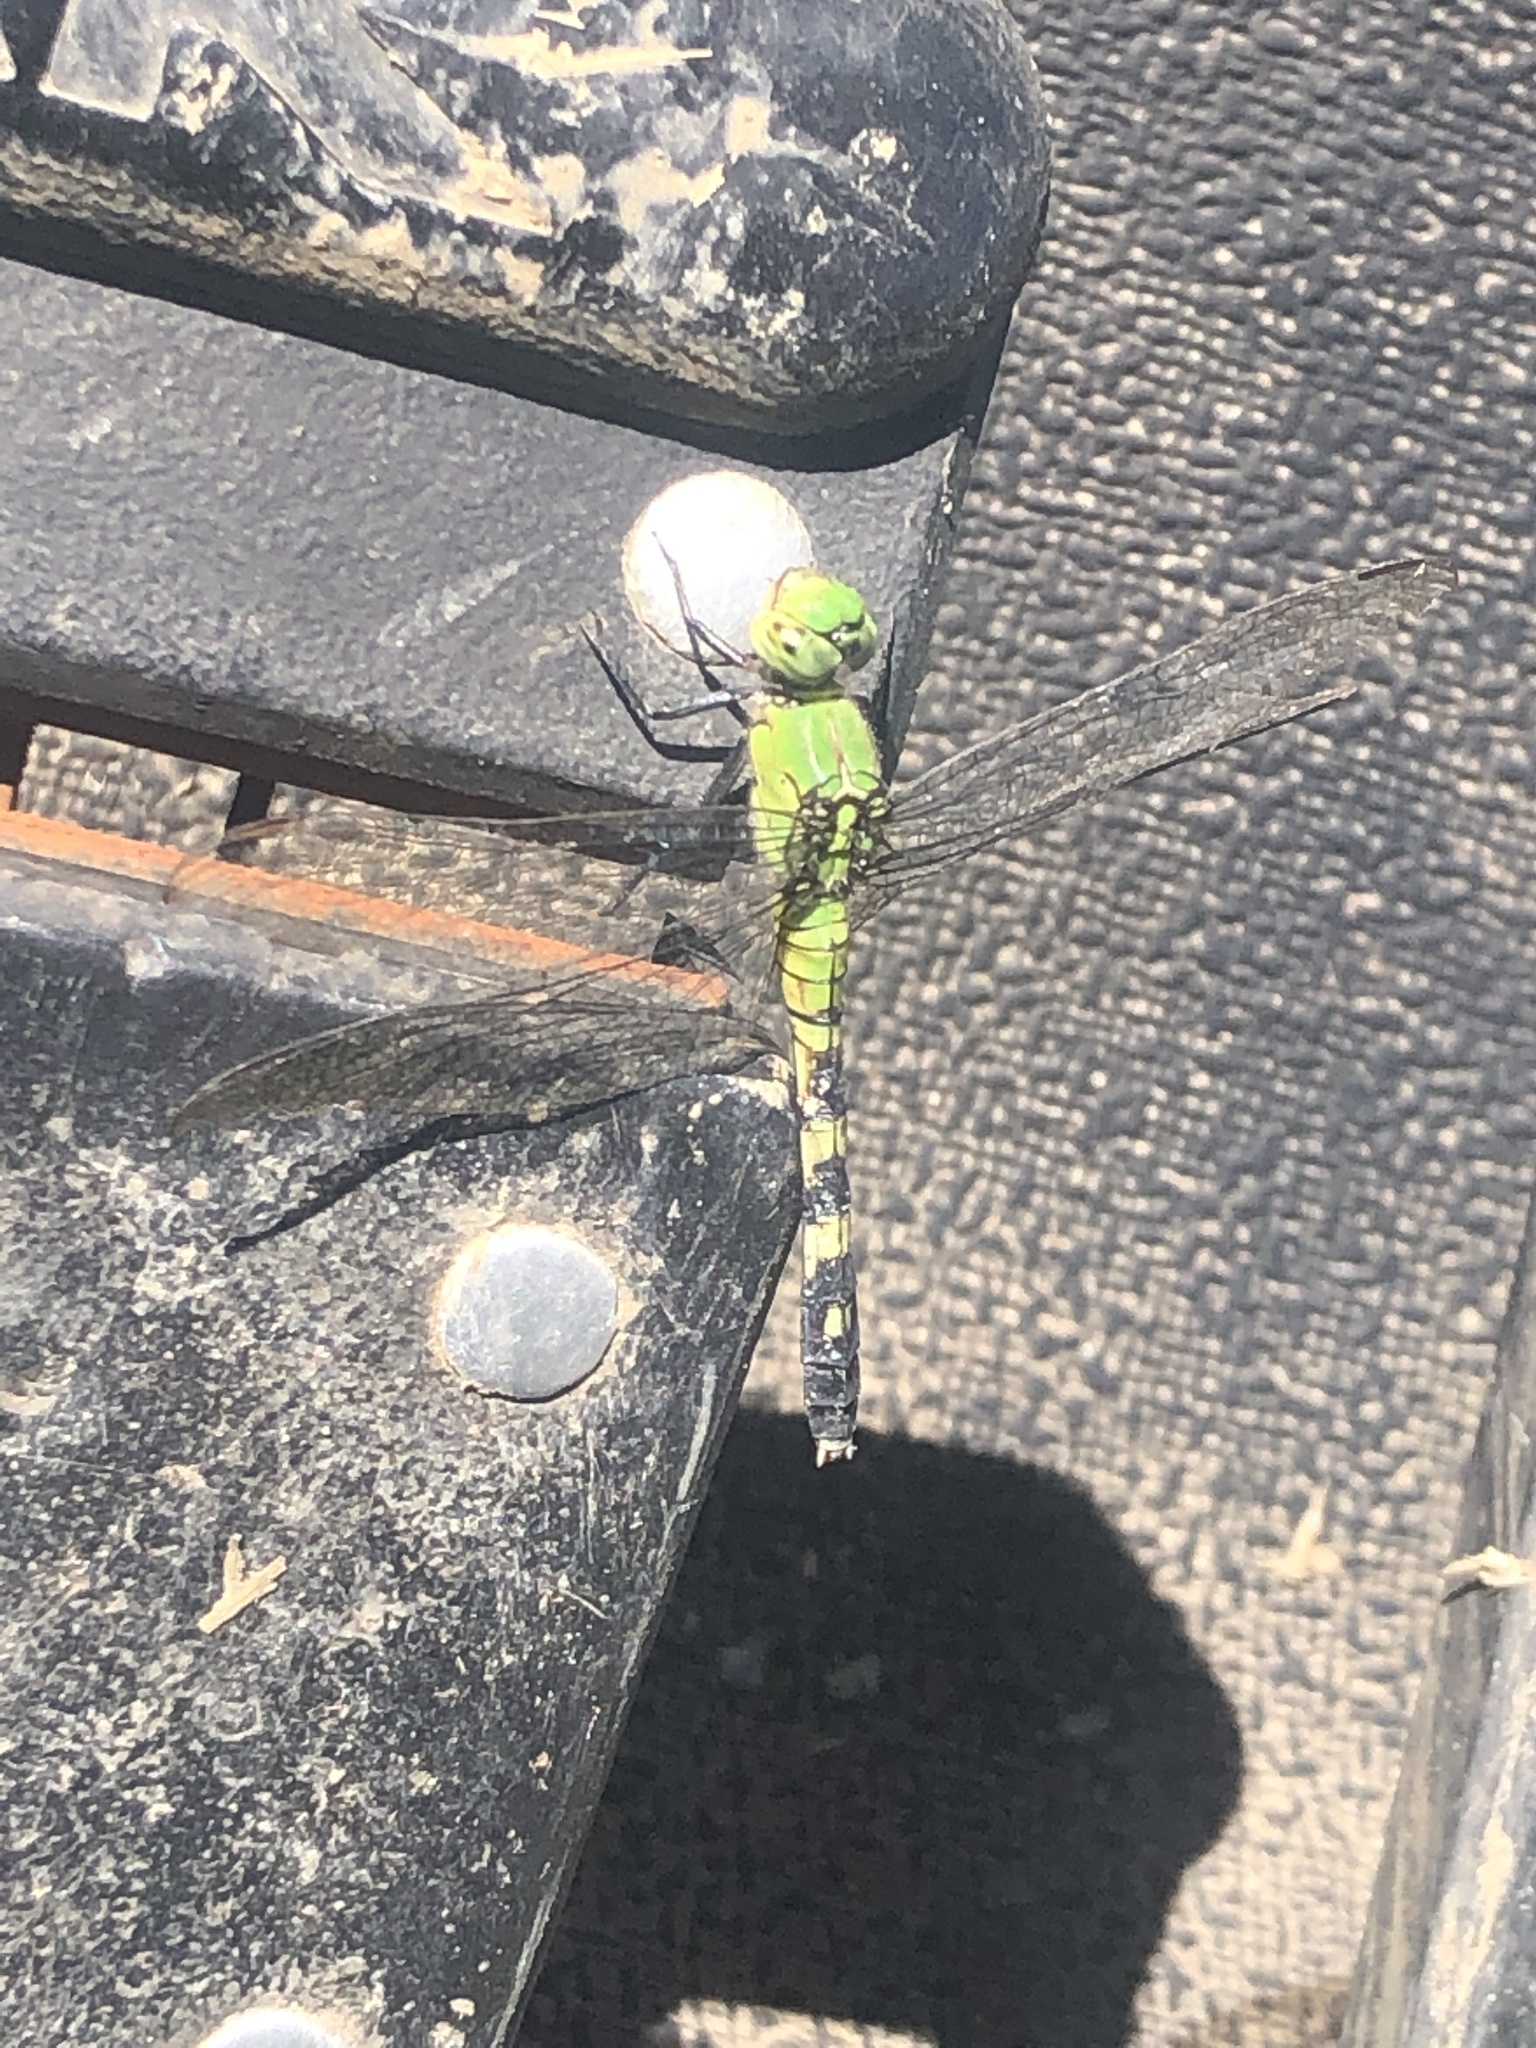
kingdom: Animalia
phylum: Arthropoda
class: Insecta
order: Odonata
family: Libellulidae
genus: Erythemis
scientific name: Erythemis simplicicollis
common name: Eastern pondhawk
